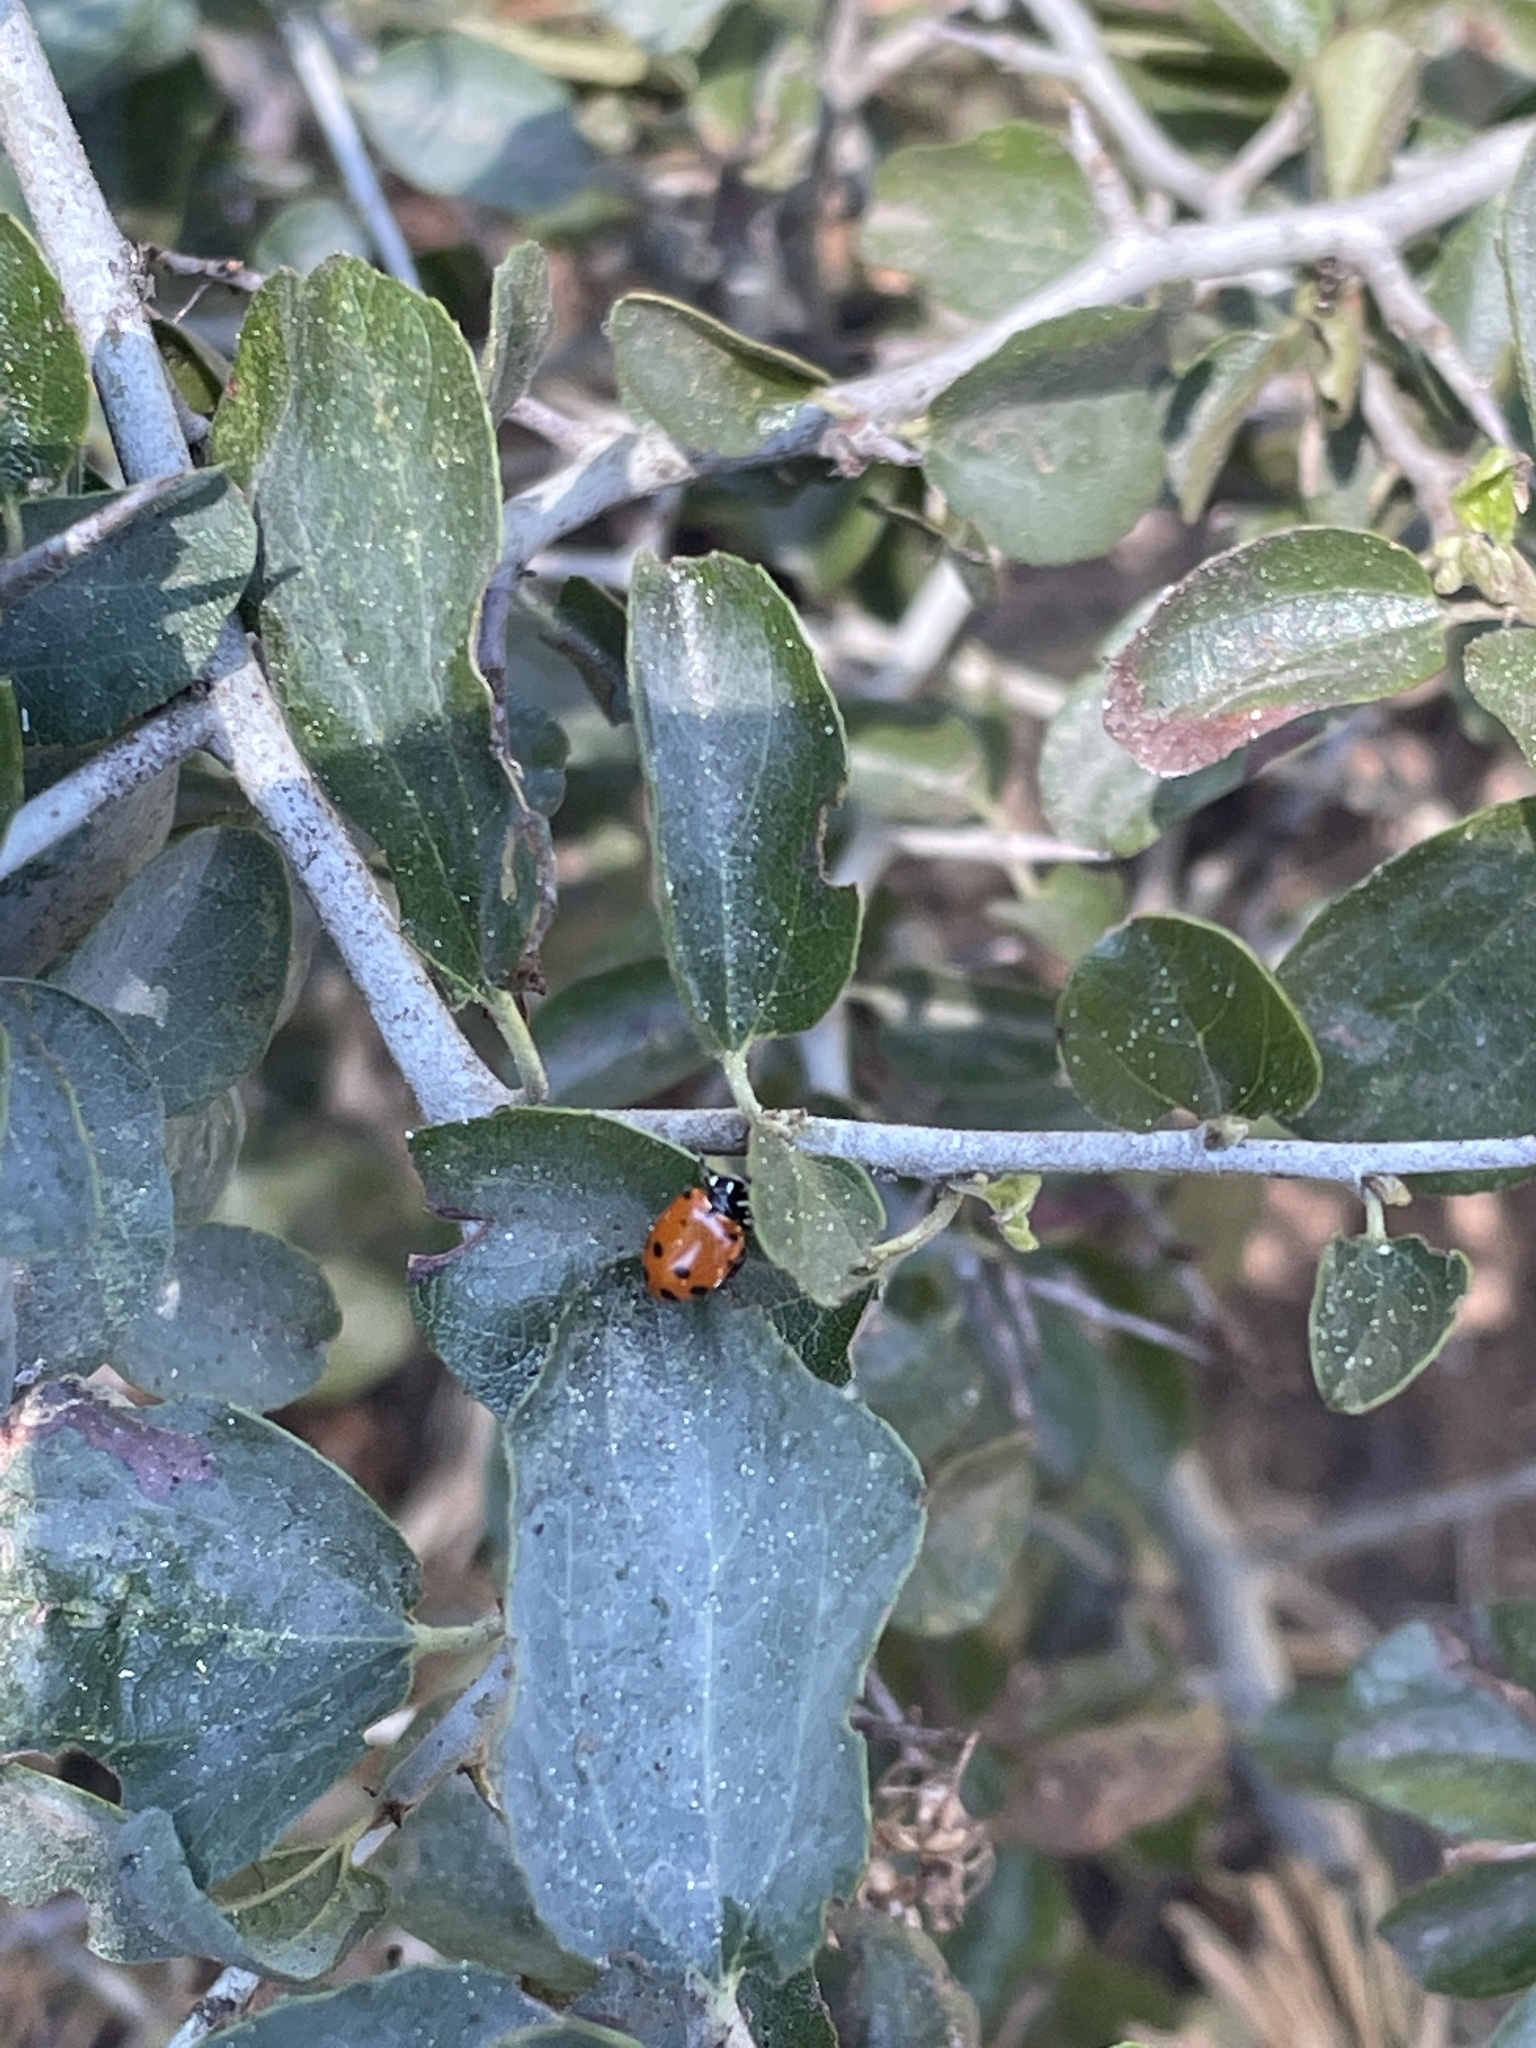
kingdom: Animalia
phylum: Arthropoda
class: Insecta
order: Coleoptera
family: Coccinellidae
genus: Hippodamia
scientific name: Hippodamia convergens
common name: Convergent lady beetle
